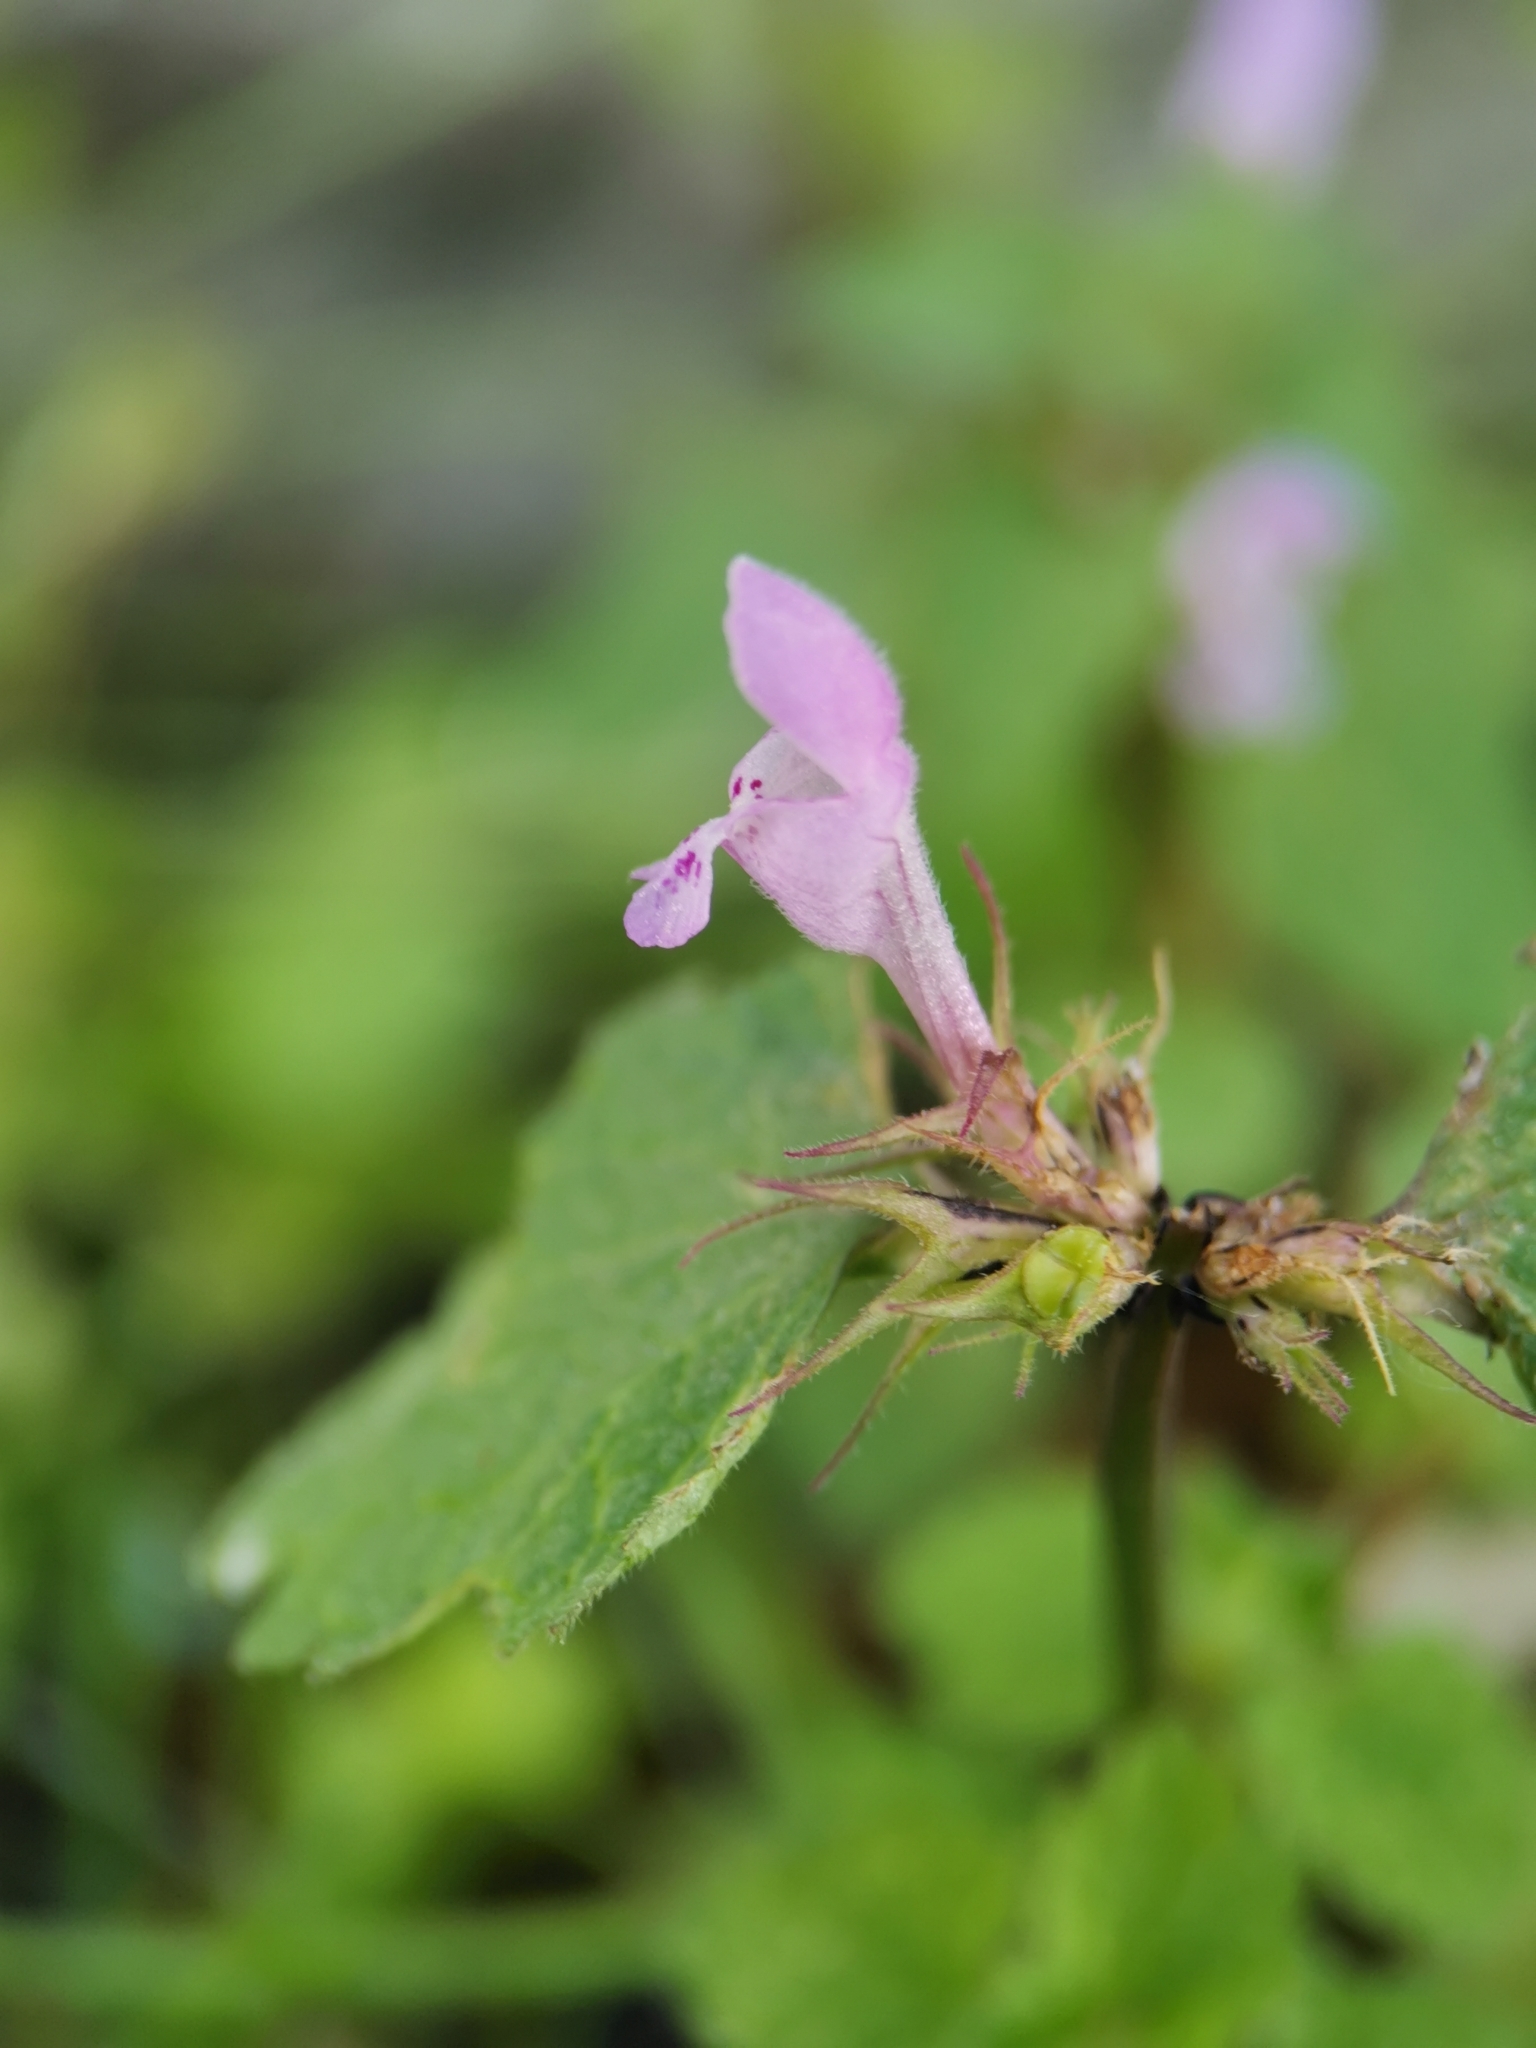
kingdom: Plantae
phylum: Tracheophyta
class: Magnoliopsida
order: Lamiales
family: Lamiaceae
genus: Lamium
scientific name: Lamium purpureum
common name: Red dead-nettle
